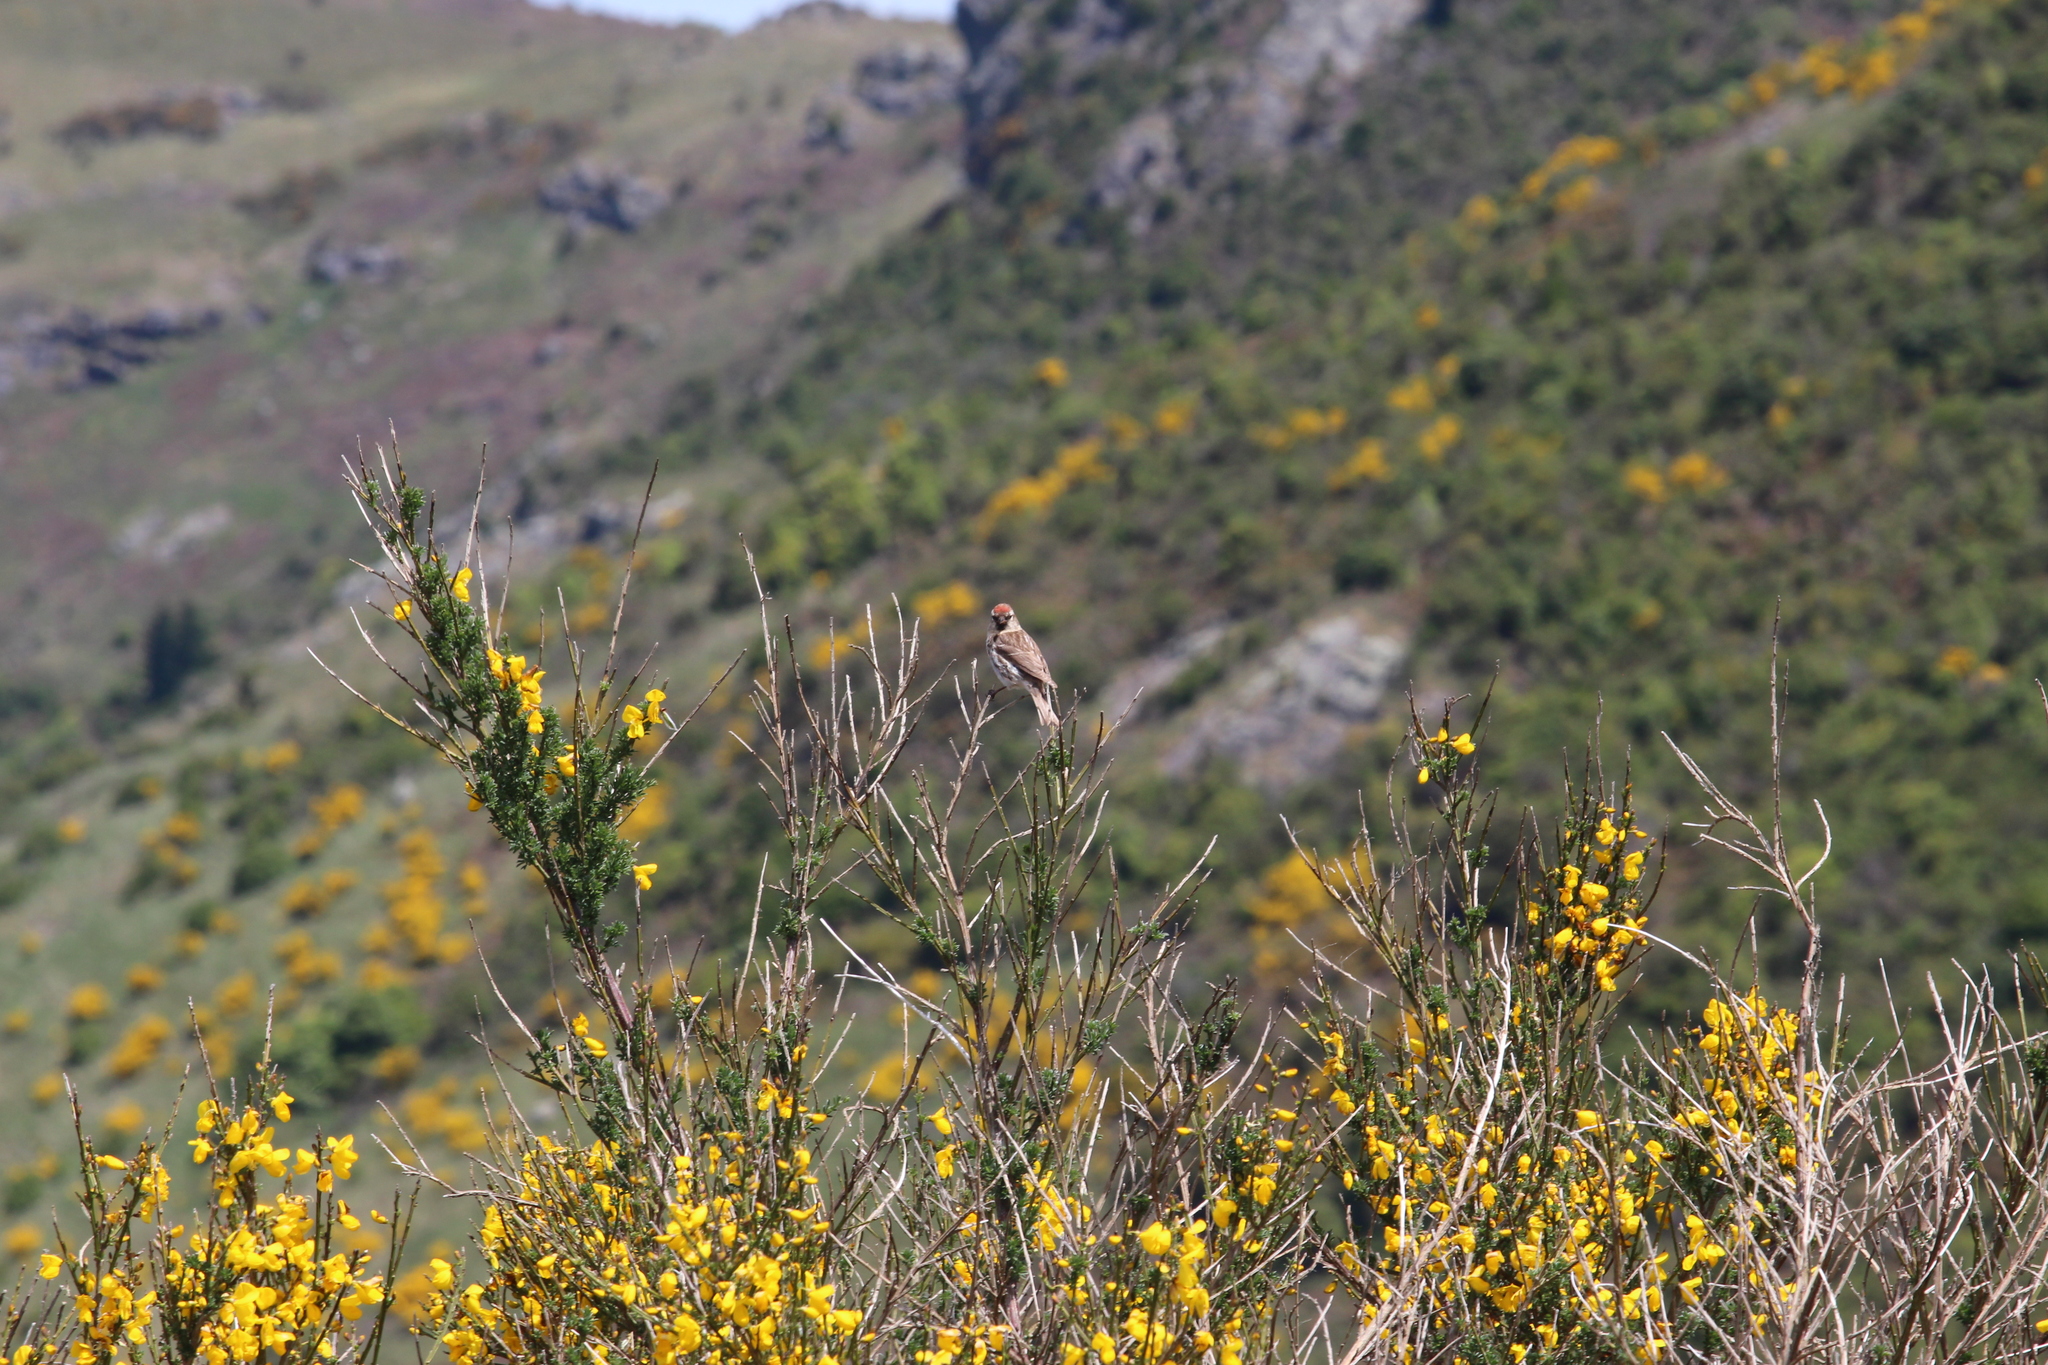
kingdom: Animalia
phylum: Chordata
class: Aves
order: Passeriformes
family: Fringillidae
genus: Acanthis
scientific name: Acanthis flammea
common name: Common redpoll
